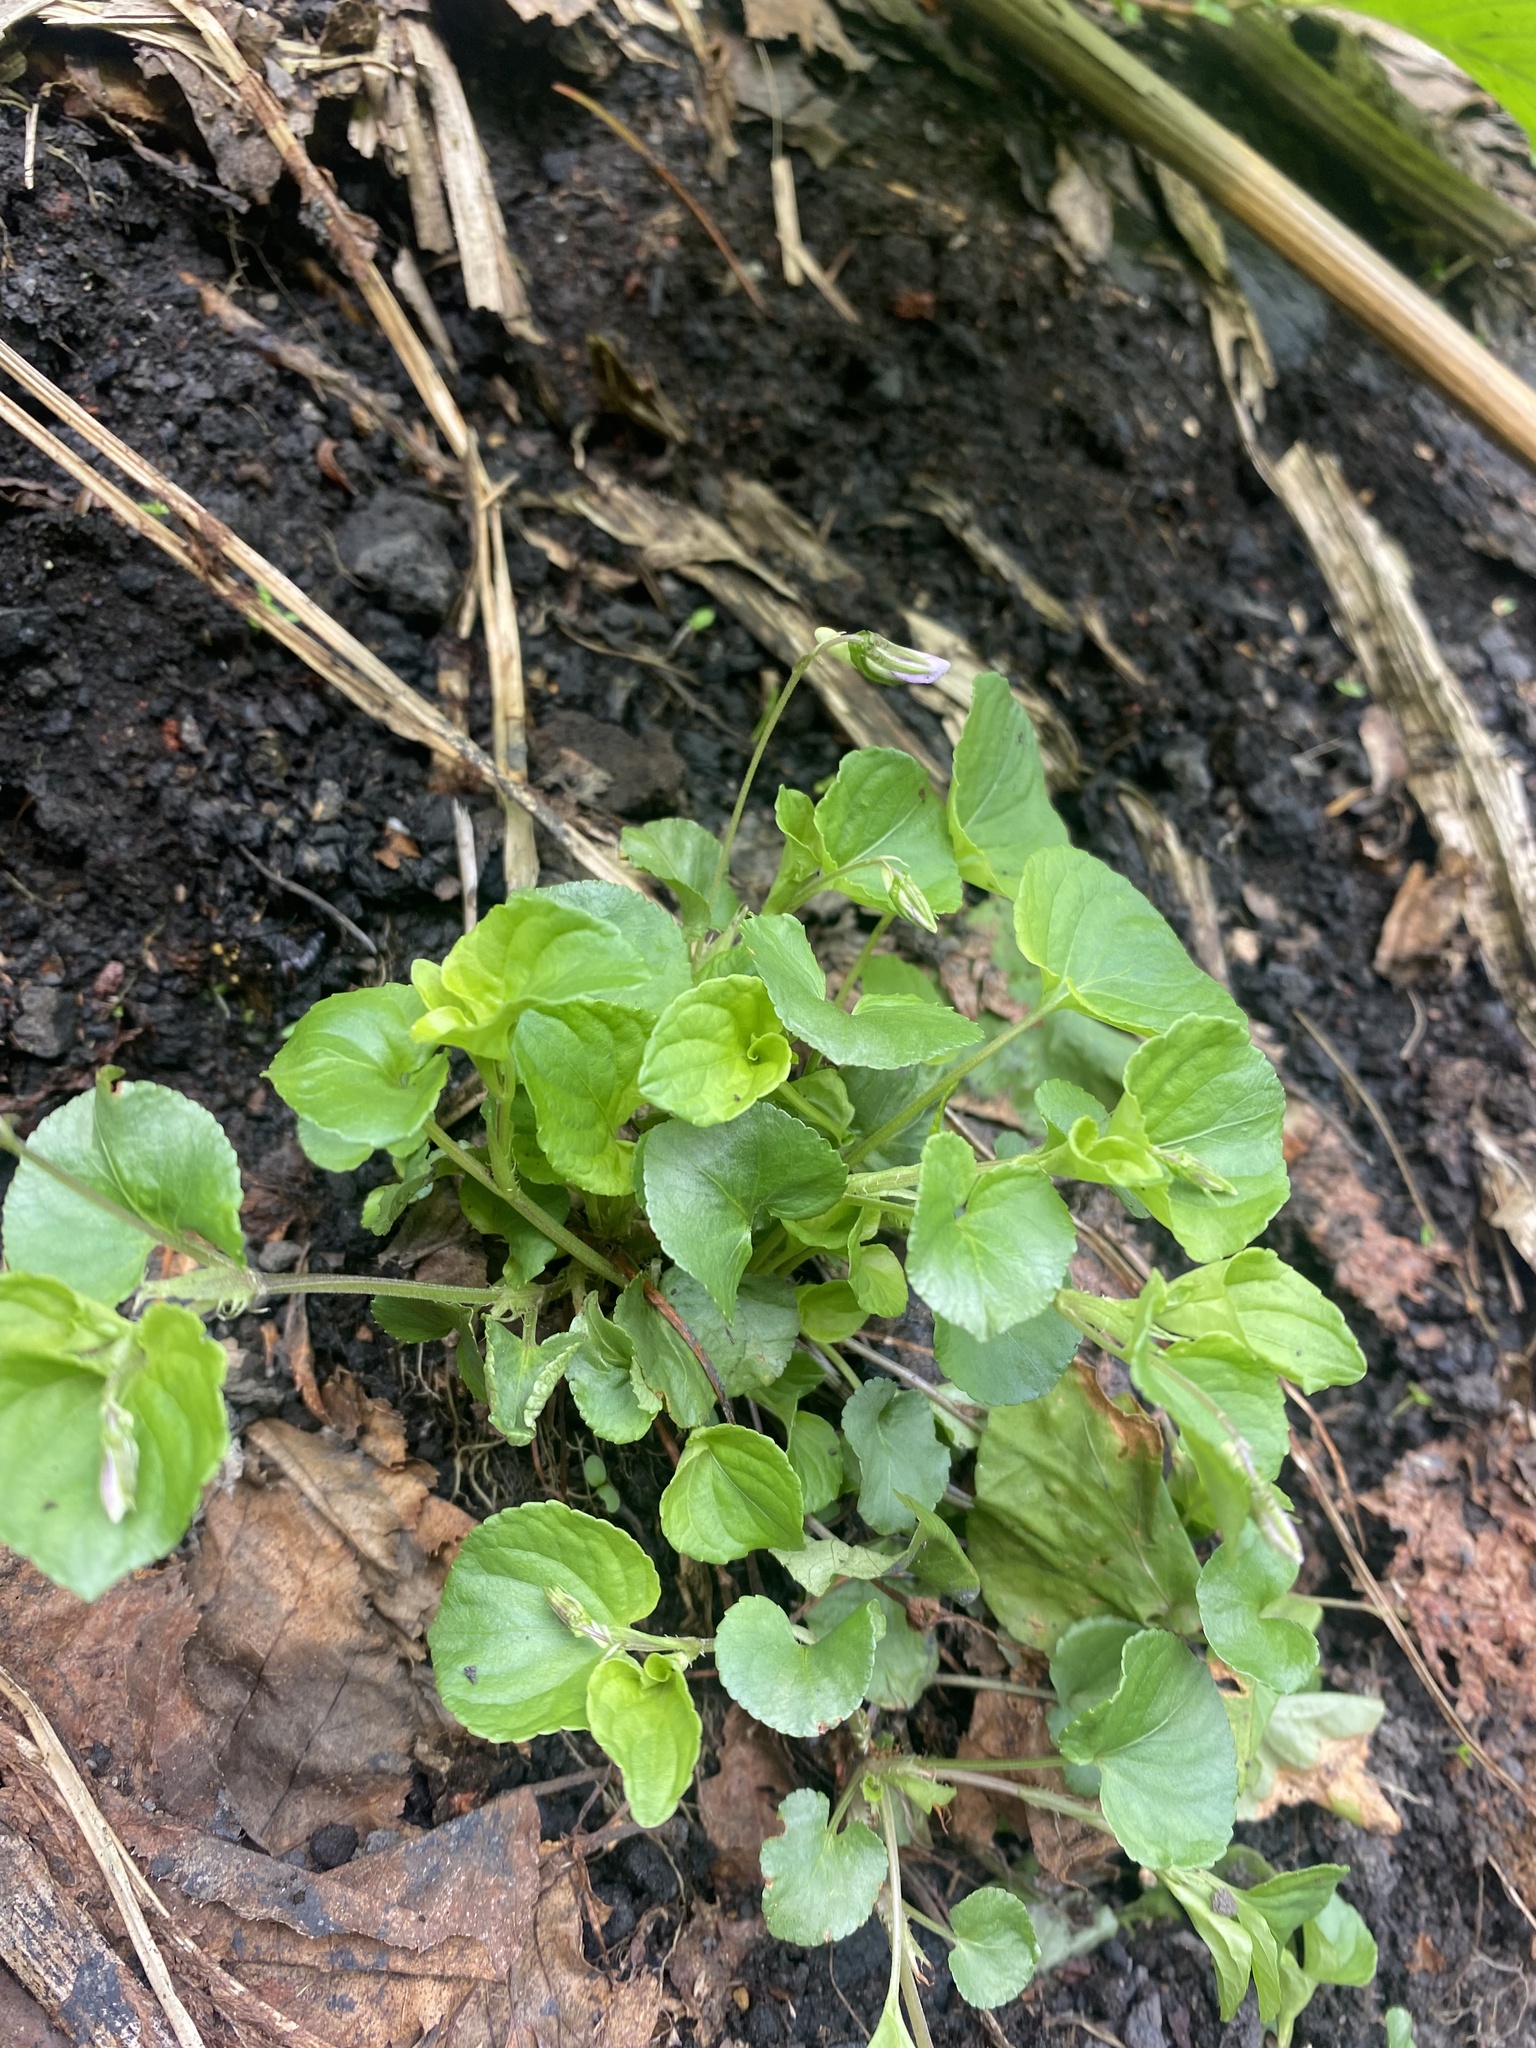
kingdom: Plantae
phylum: Tracheophyta
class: Magnoliopsida
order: Malpighiales
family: Violaceae
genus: Viola
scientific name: Viola kusanoana
